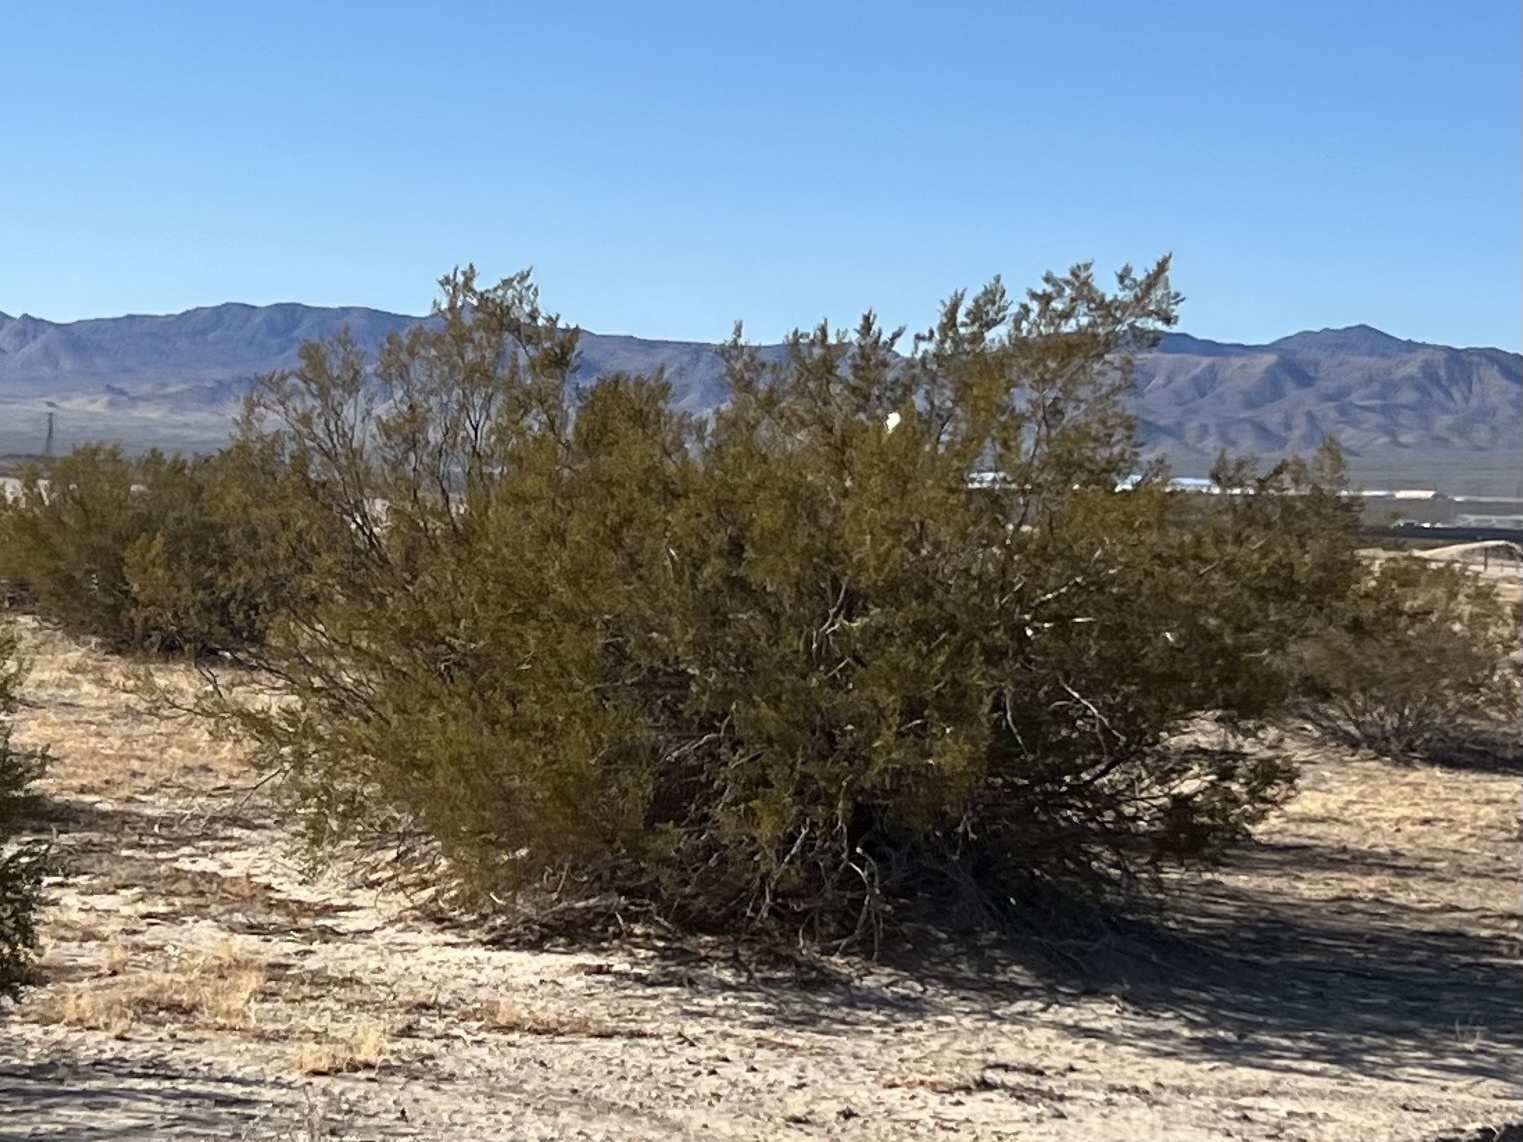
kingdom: Plantae
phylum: Tracheophyta
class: Magnoliopsida
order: Zygophyllales
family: Zygophyllaceae
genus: Larrea
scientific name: Larrea tridentata
